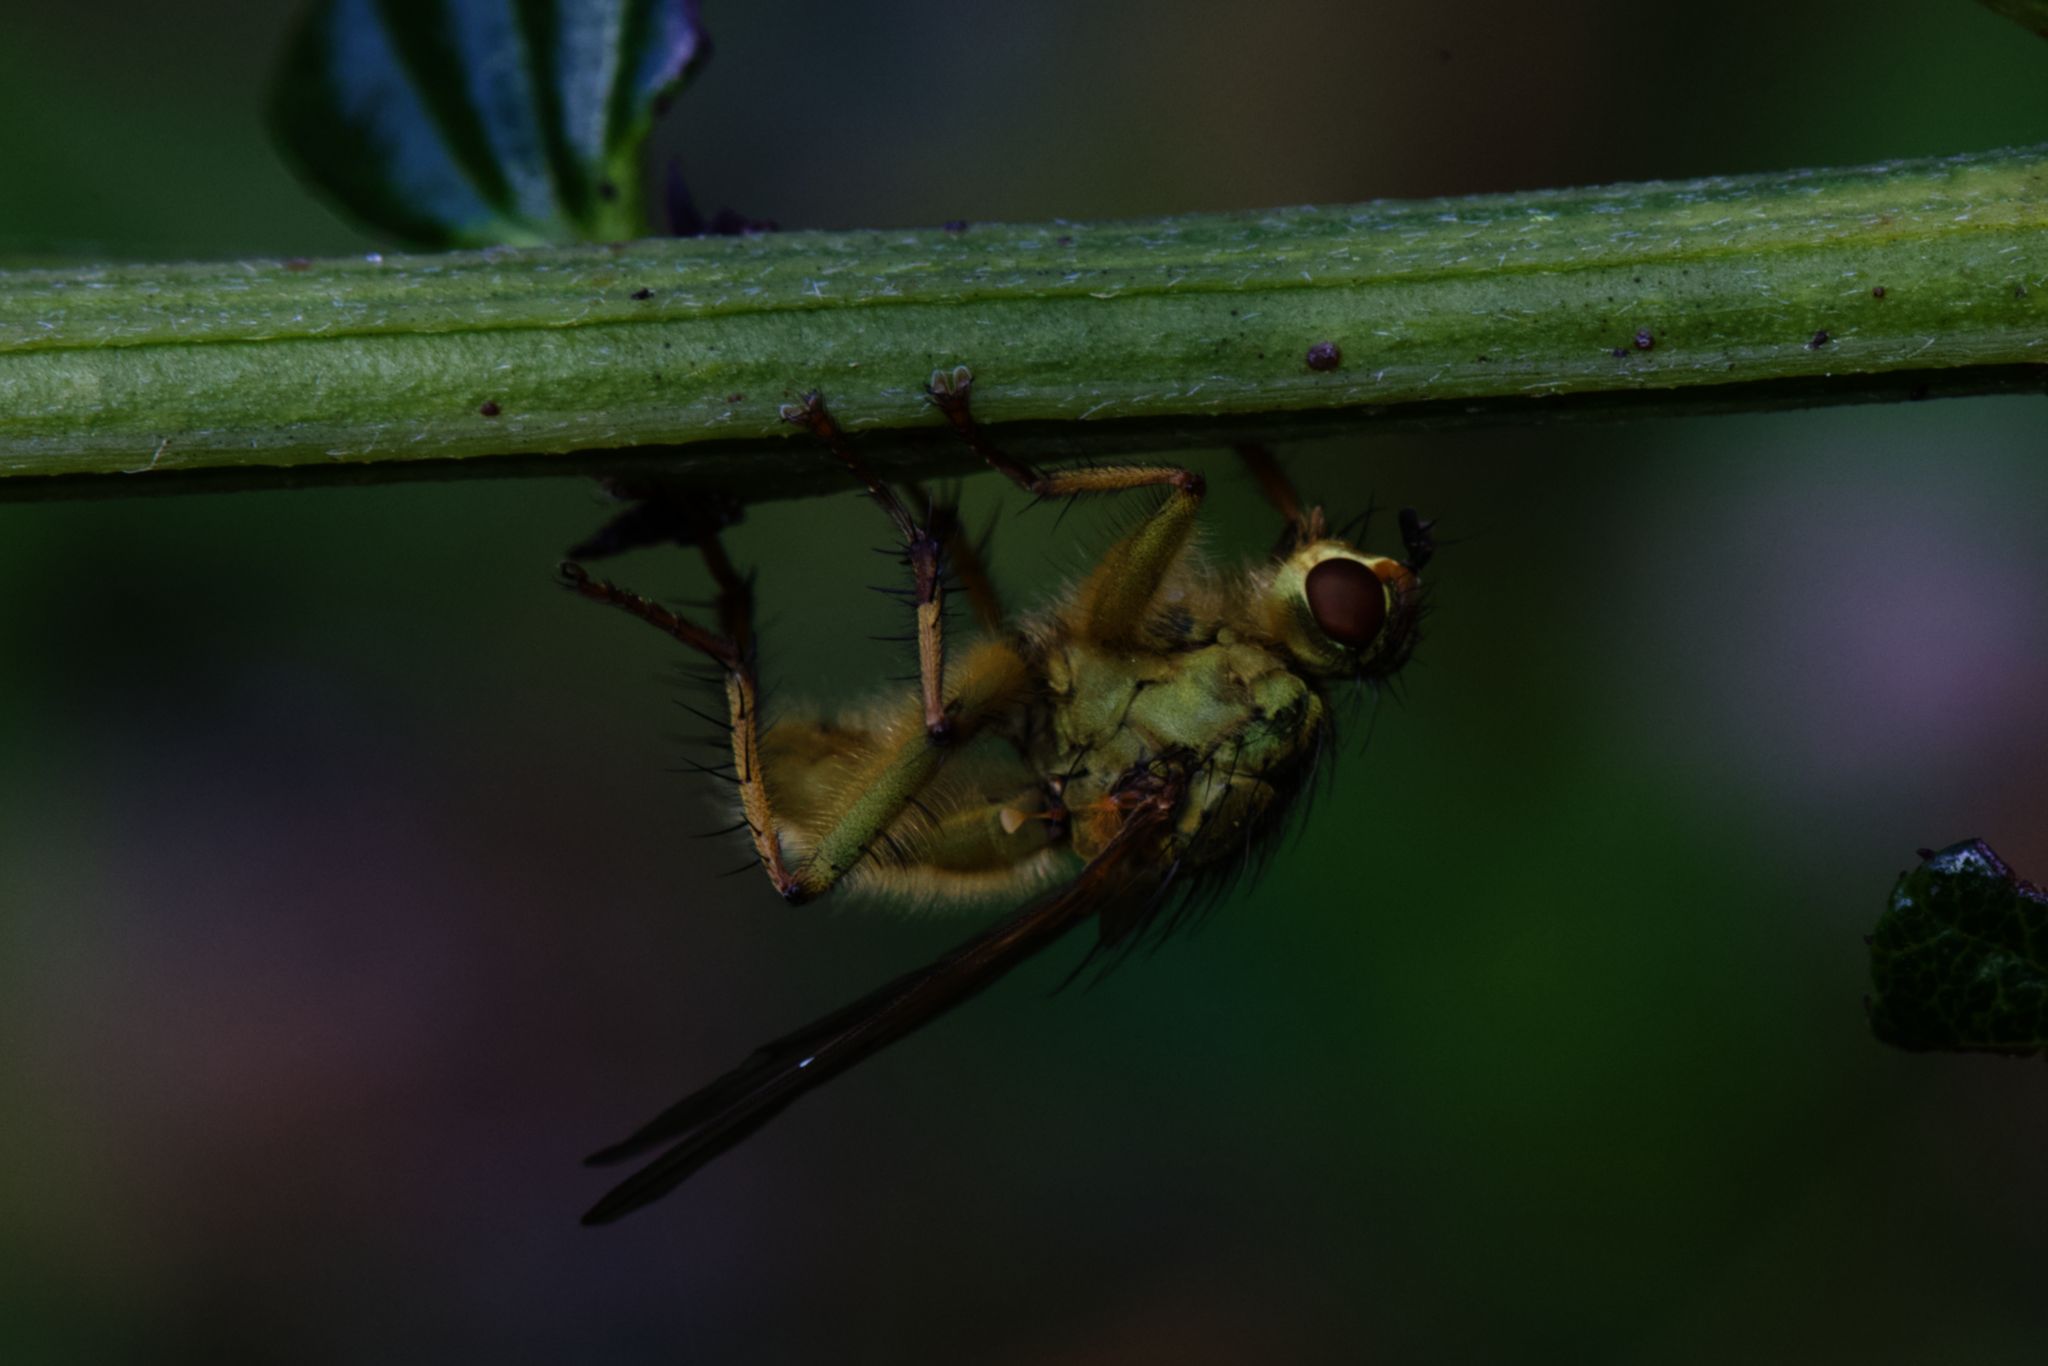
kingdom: Animalia
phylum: Arthropoda
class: Insecta
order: Diptera
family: Scathophagidae
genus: Scathophaga
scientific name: Scathophaga stercoraria
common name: Yellow dung fly
